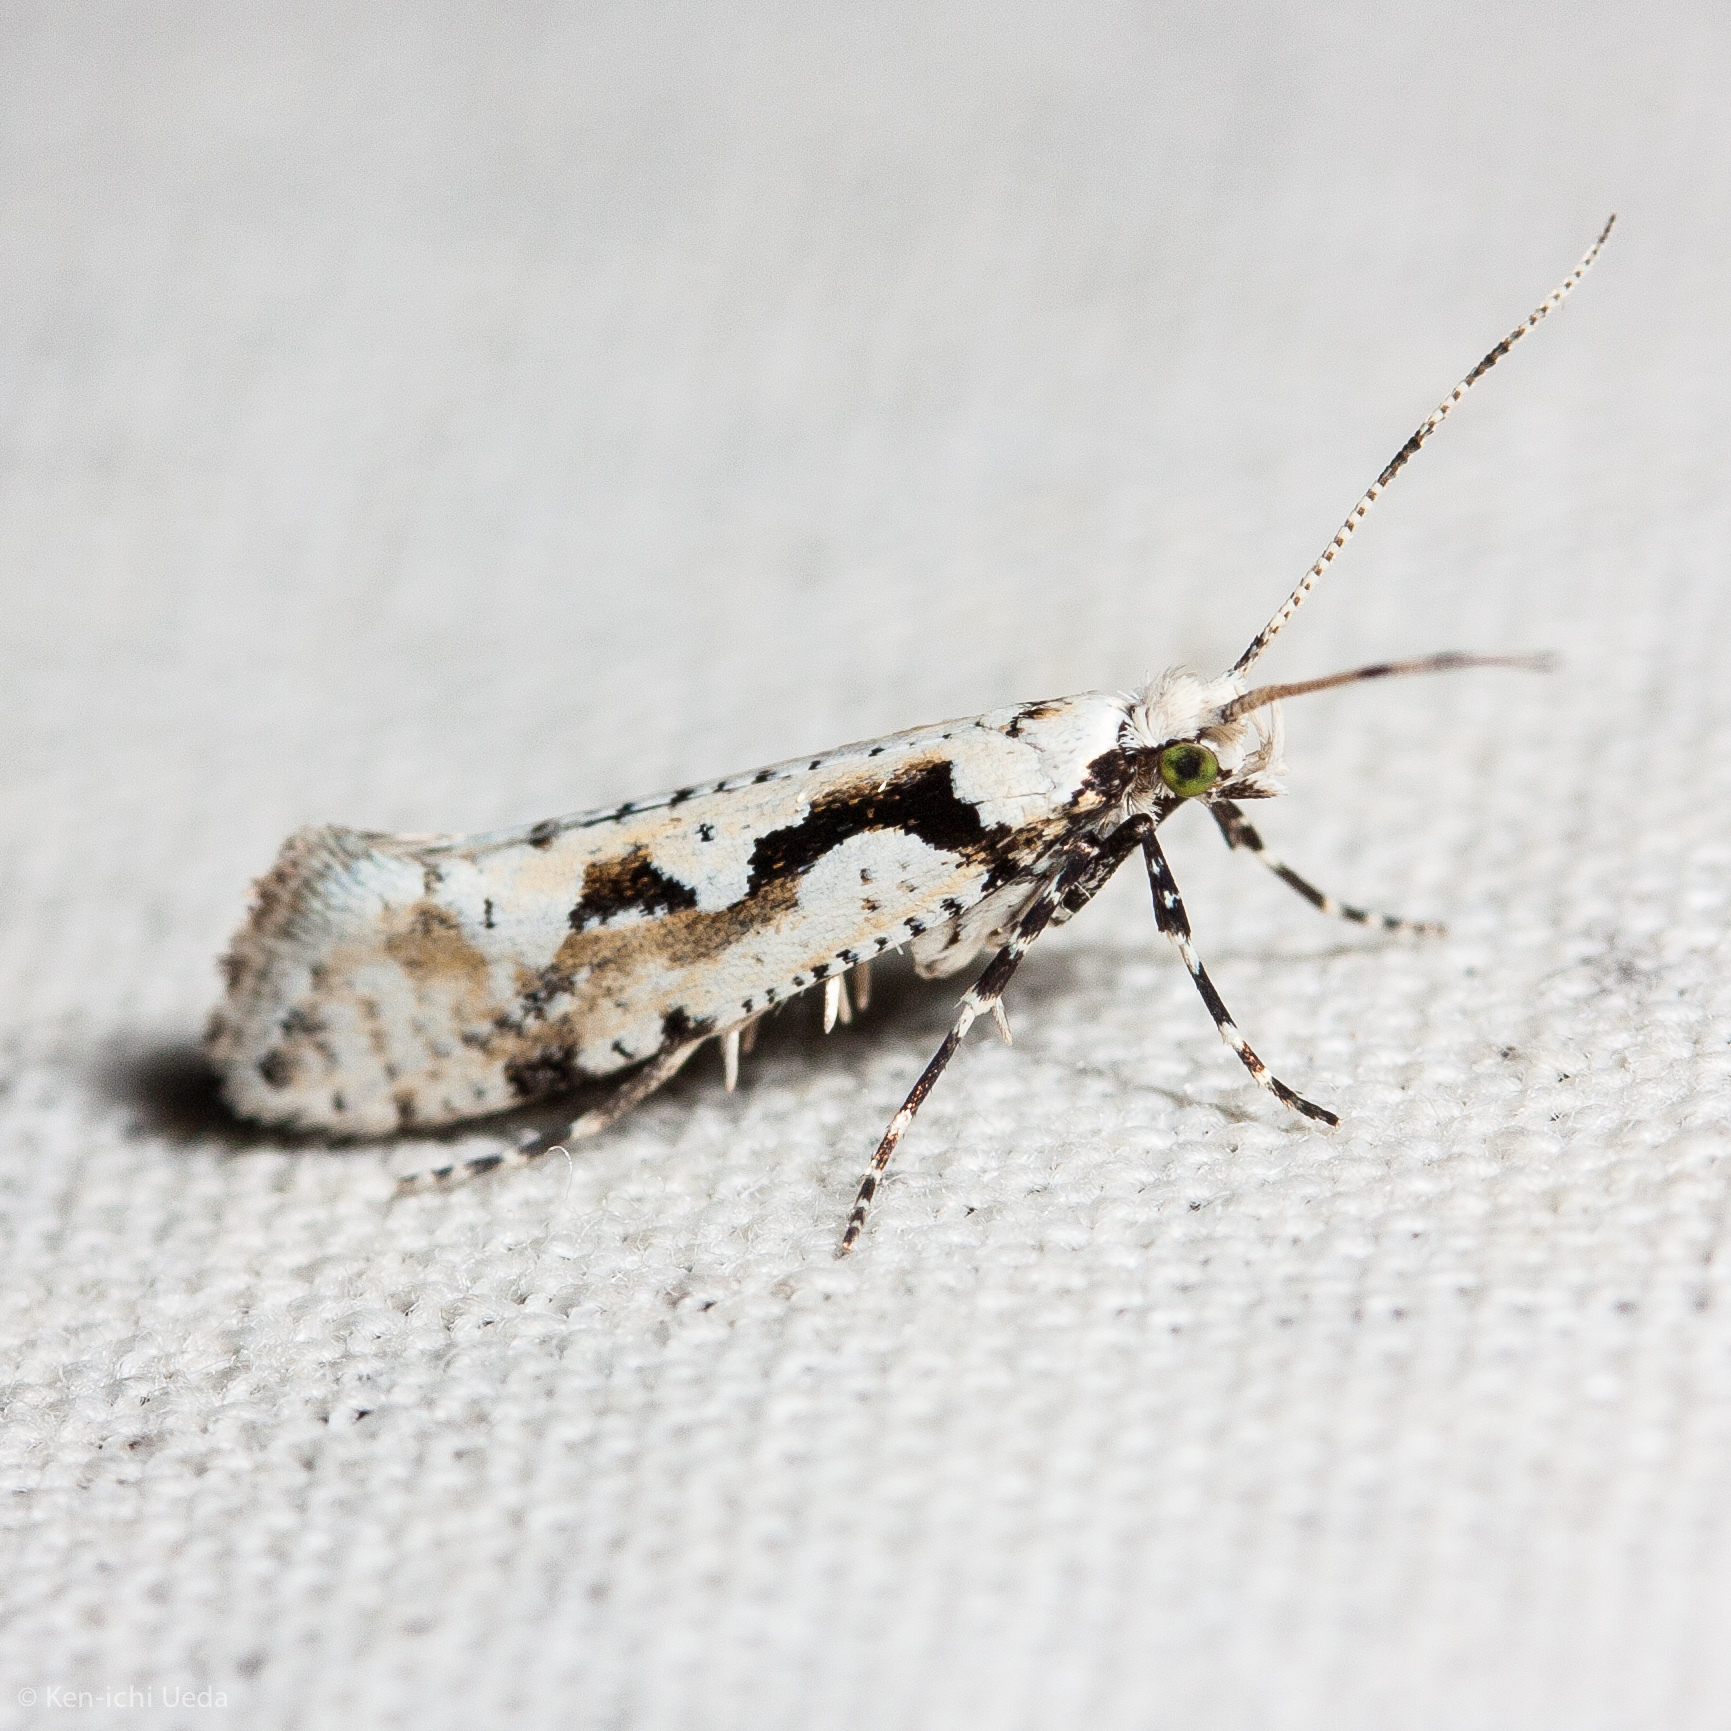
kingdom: Animalia
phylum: Arthropoda
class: Insecta
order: Lepidoptera
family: Plutellidae
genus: Rhigognostis
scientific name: Rhigognostis interrupta
